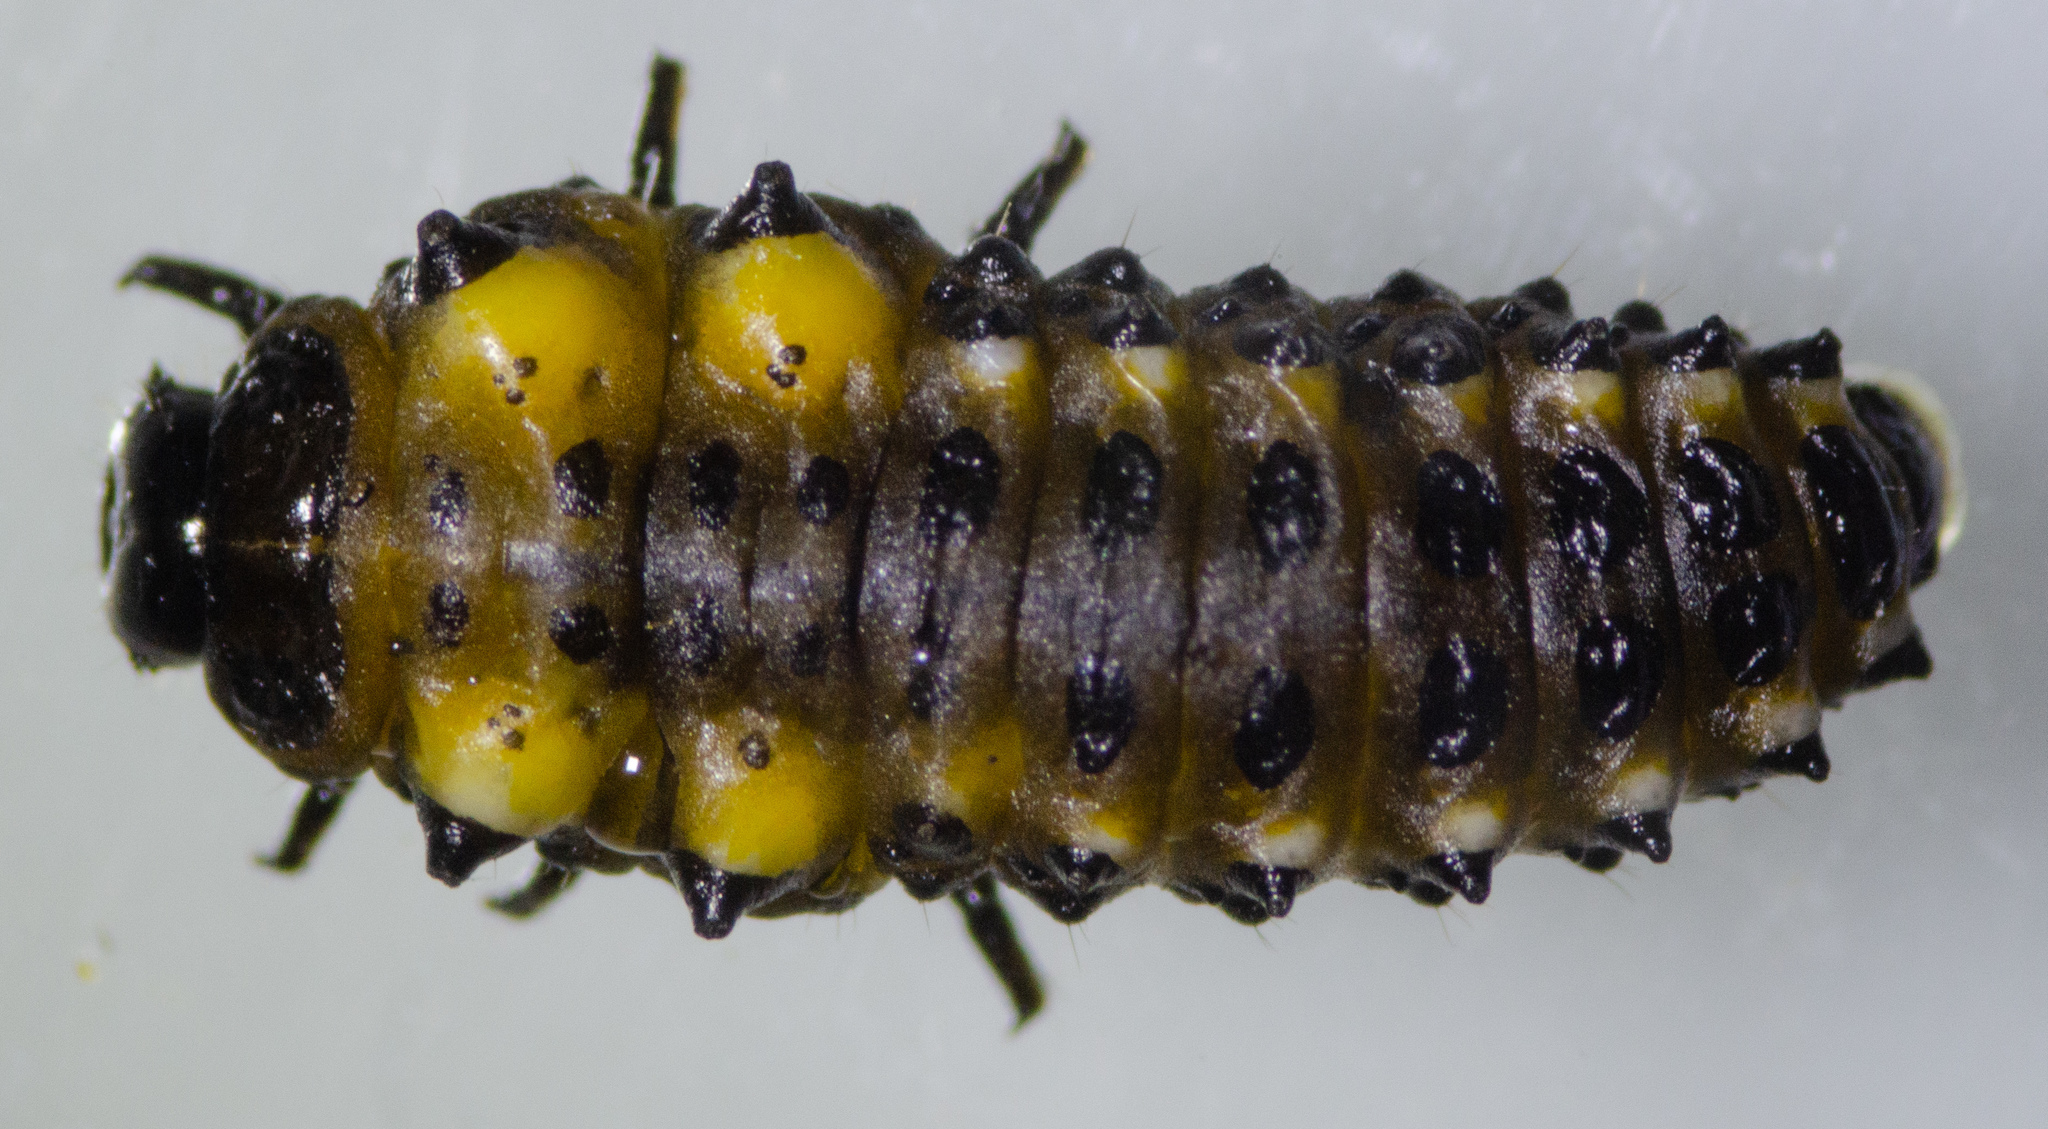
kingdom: Animalia
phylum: Arthropoda
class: Insecta
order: Coleoptera
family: Chrysomelidae
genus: Chrysomela
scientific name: Chrysomela confluens
